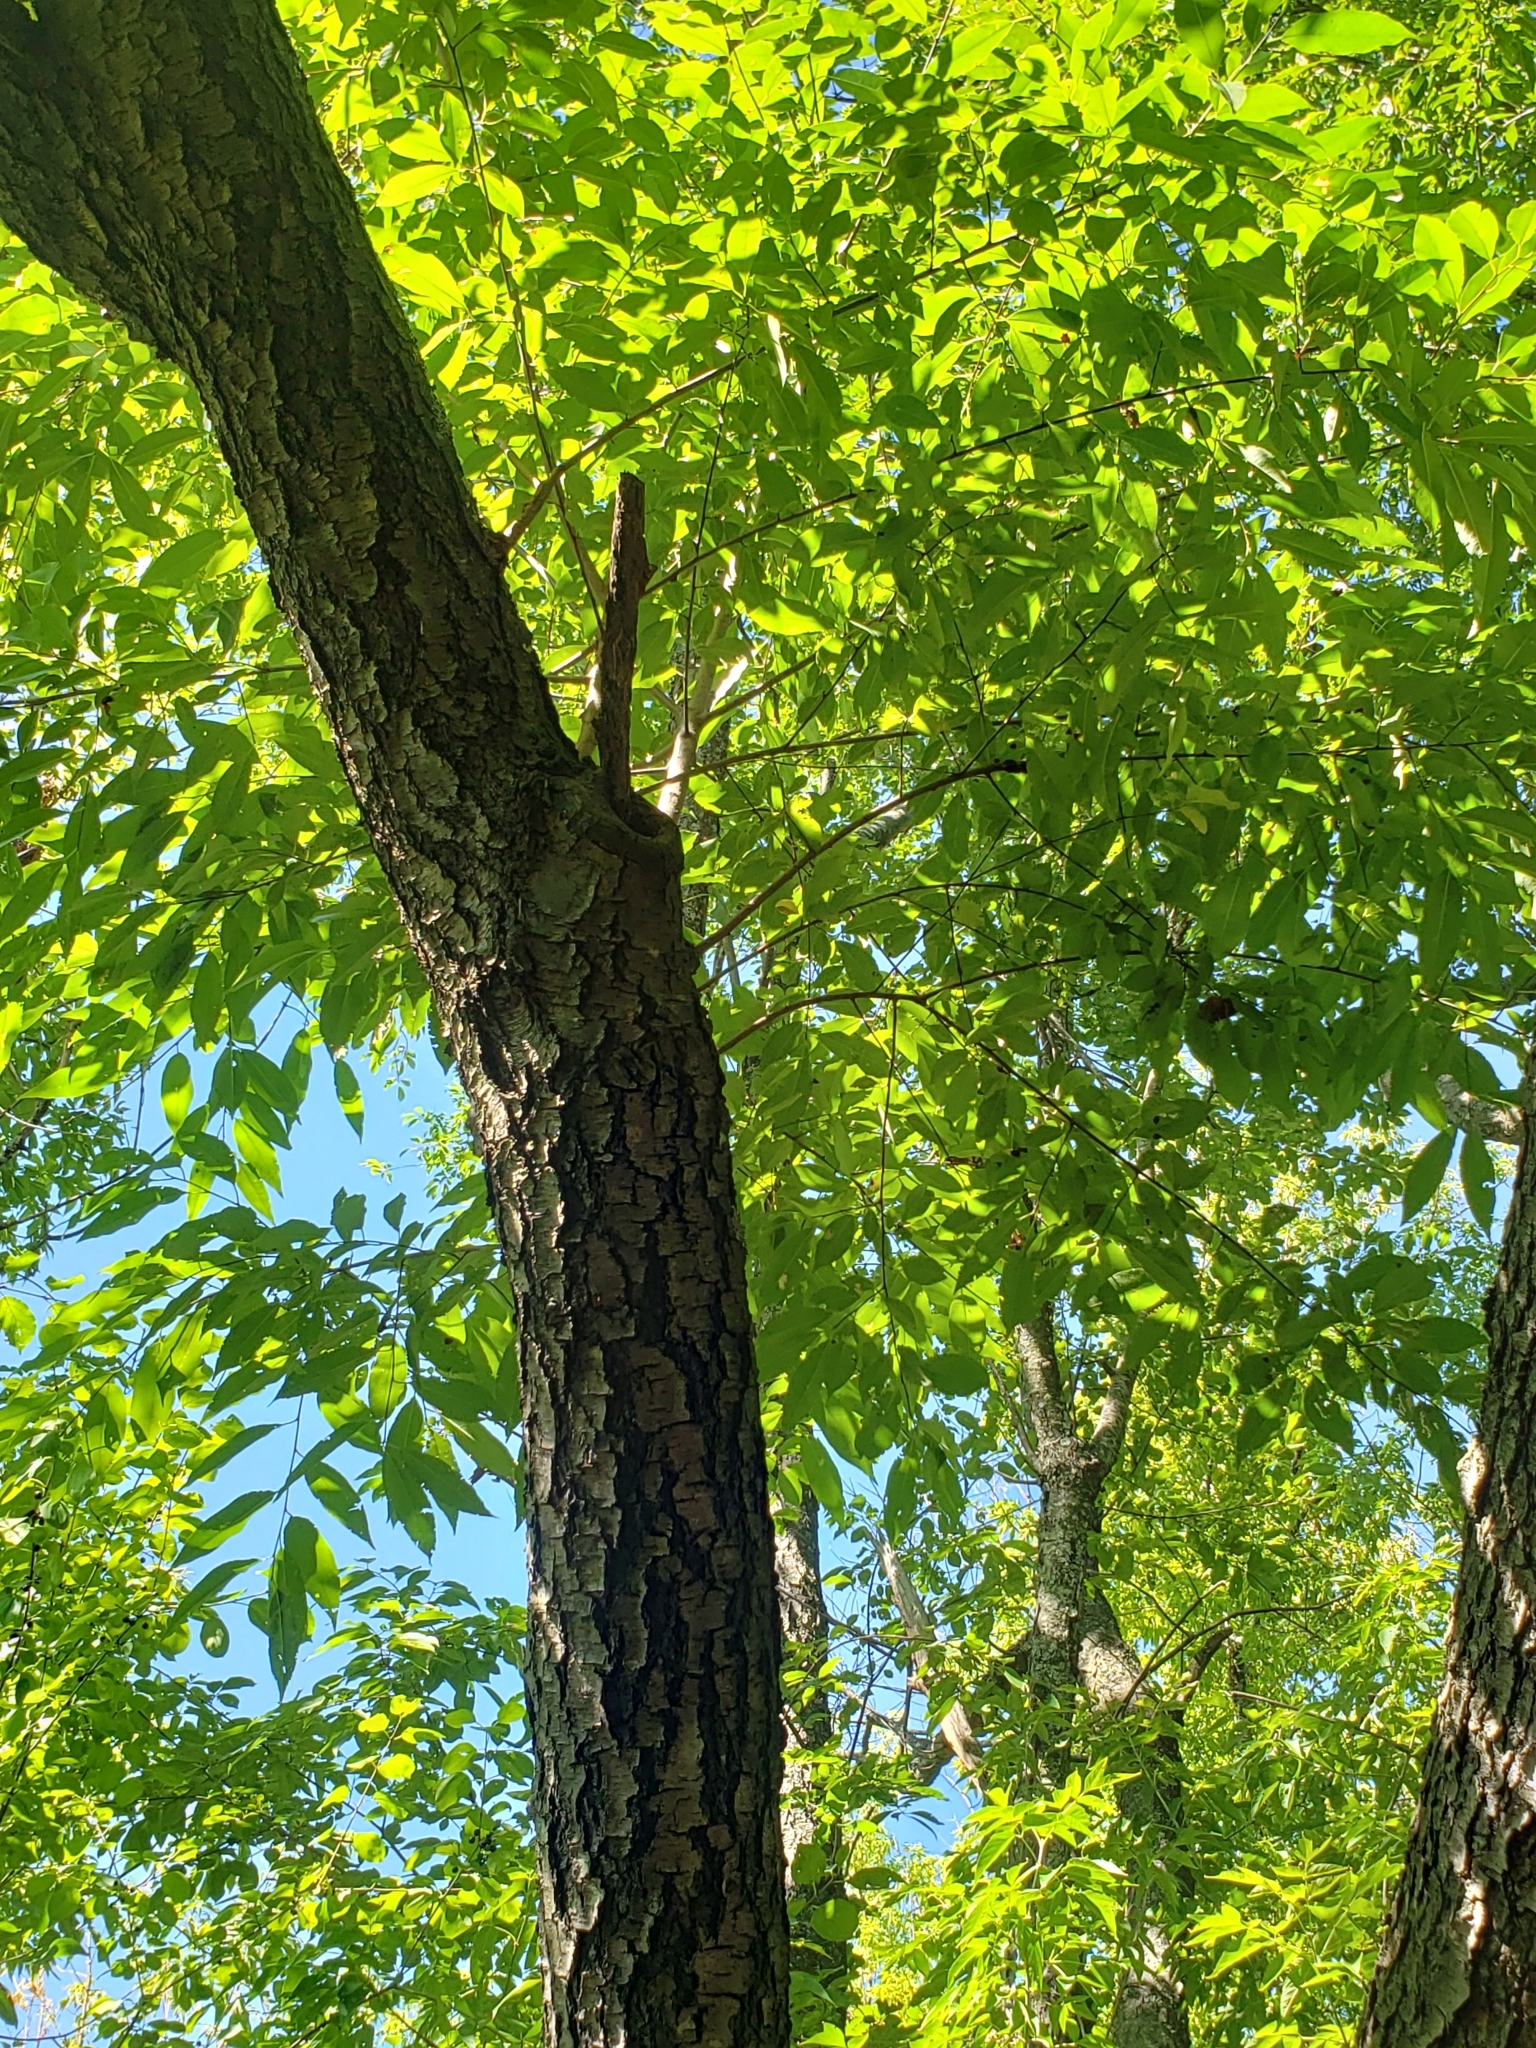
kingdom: Plantae
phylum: Tracheophyta
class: Magnoliopsida
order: Rosales
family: Rosaceae
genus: Prunus
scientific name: Prunus serotina
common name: Black cherry
